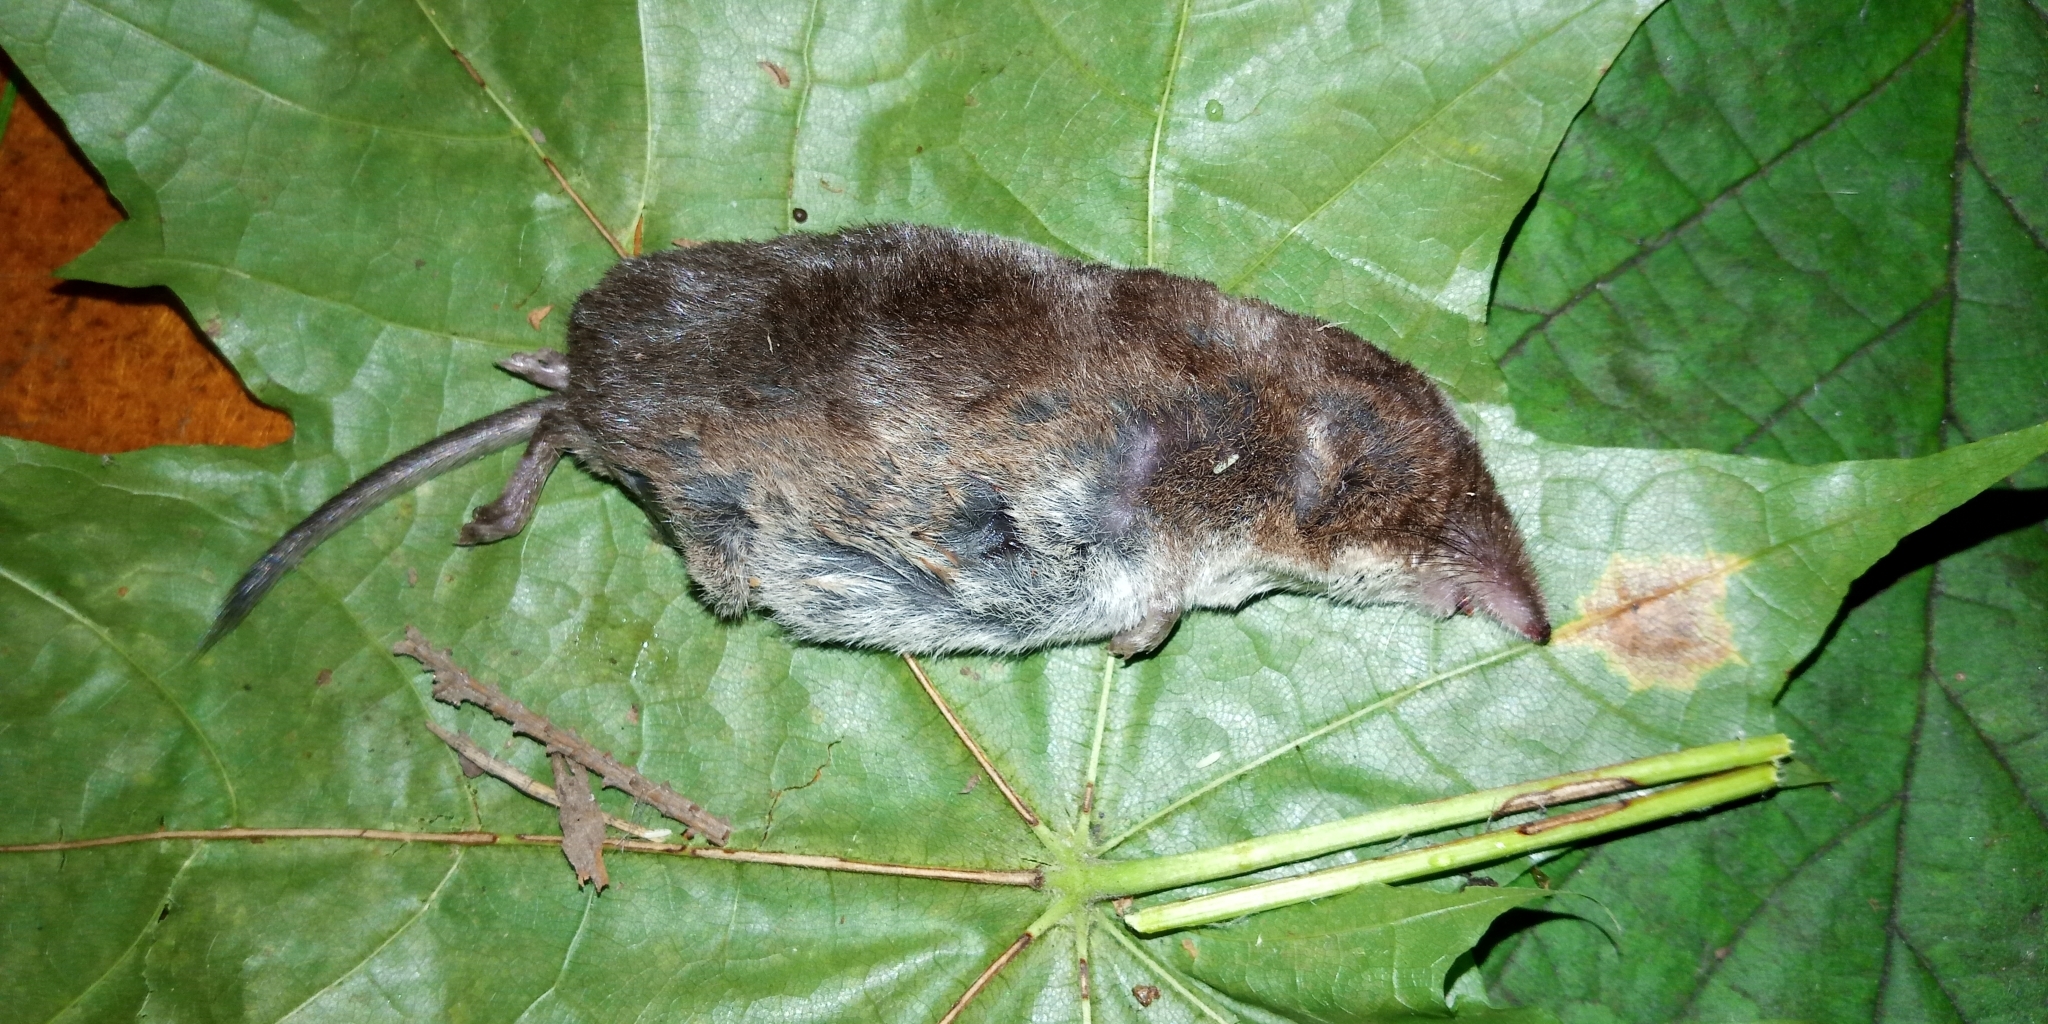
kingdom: Animalia
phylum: Chordata
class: Mammalia
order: Soricomorpha
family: Soricidae
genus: Sorex
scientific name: Sorex araneus
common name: Common shrew
